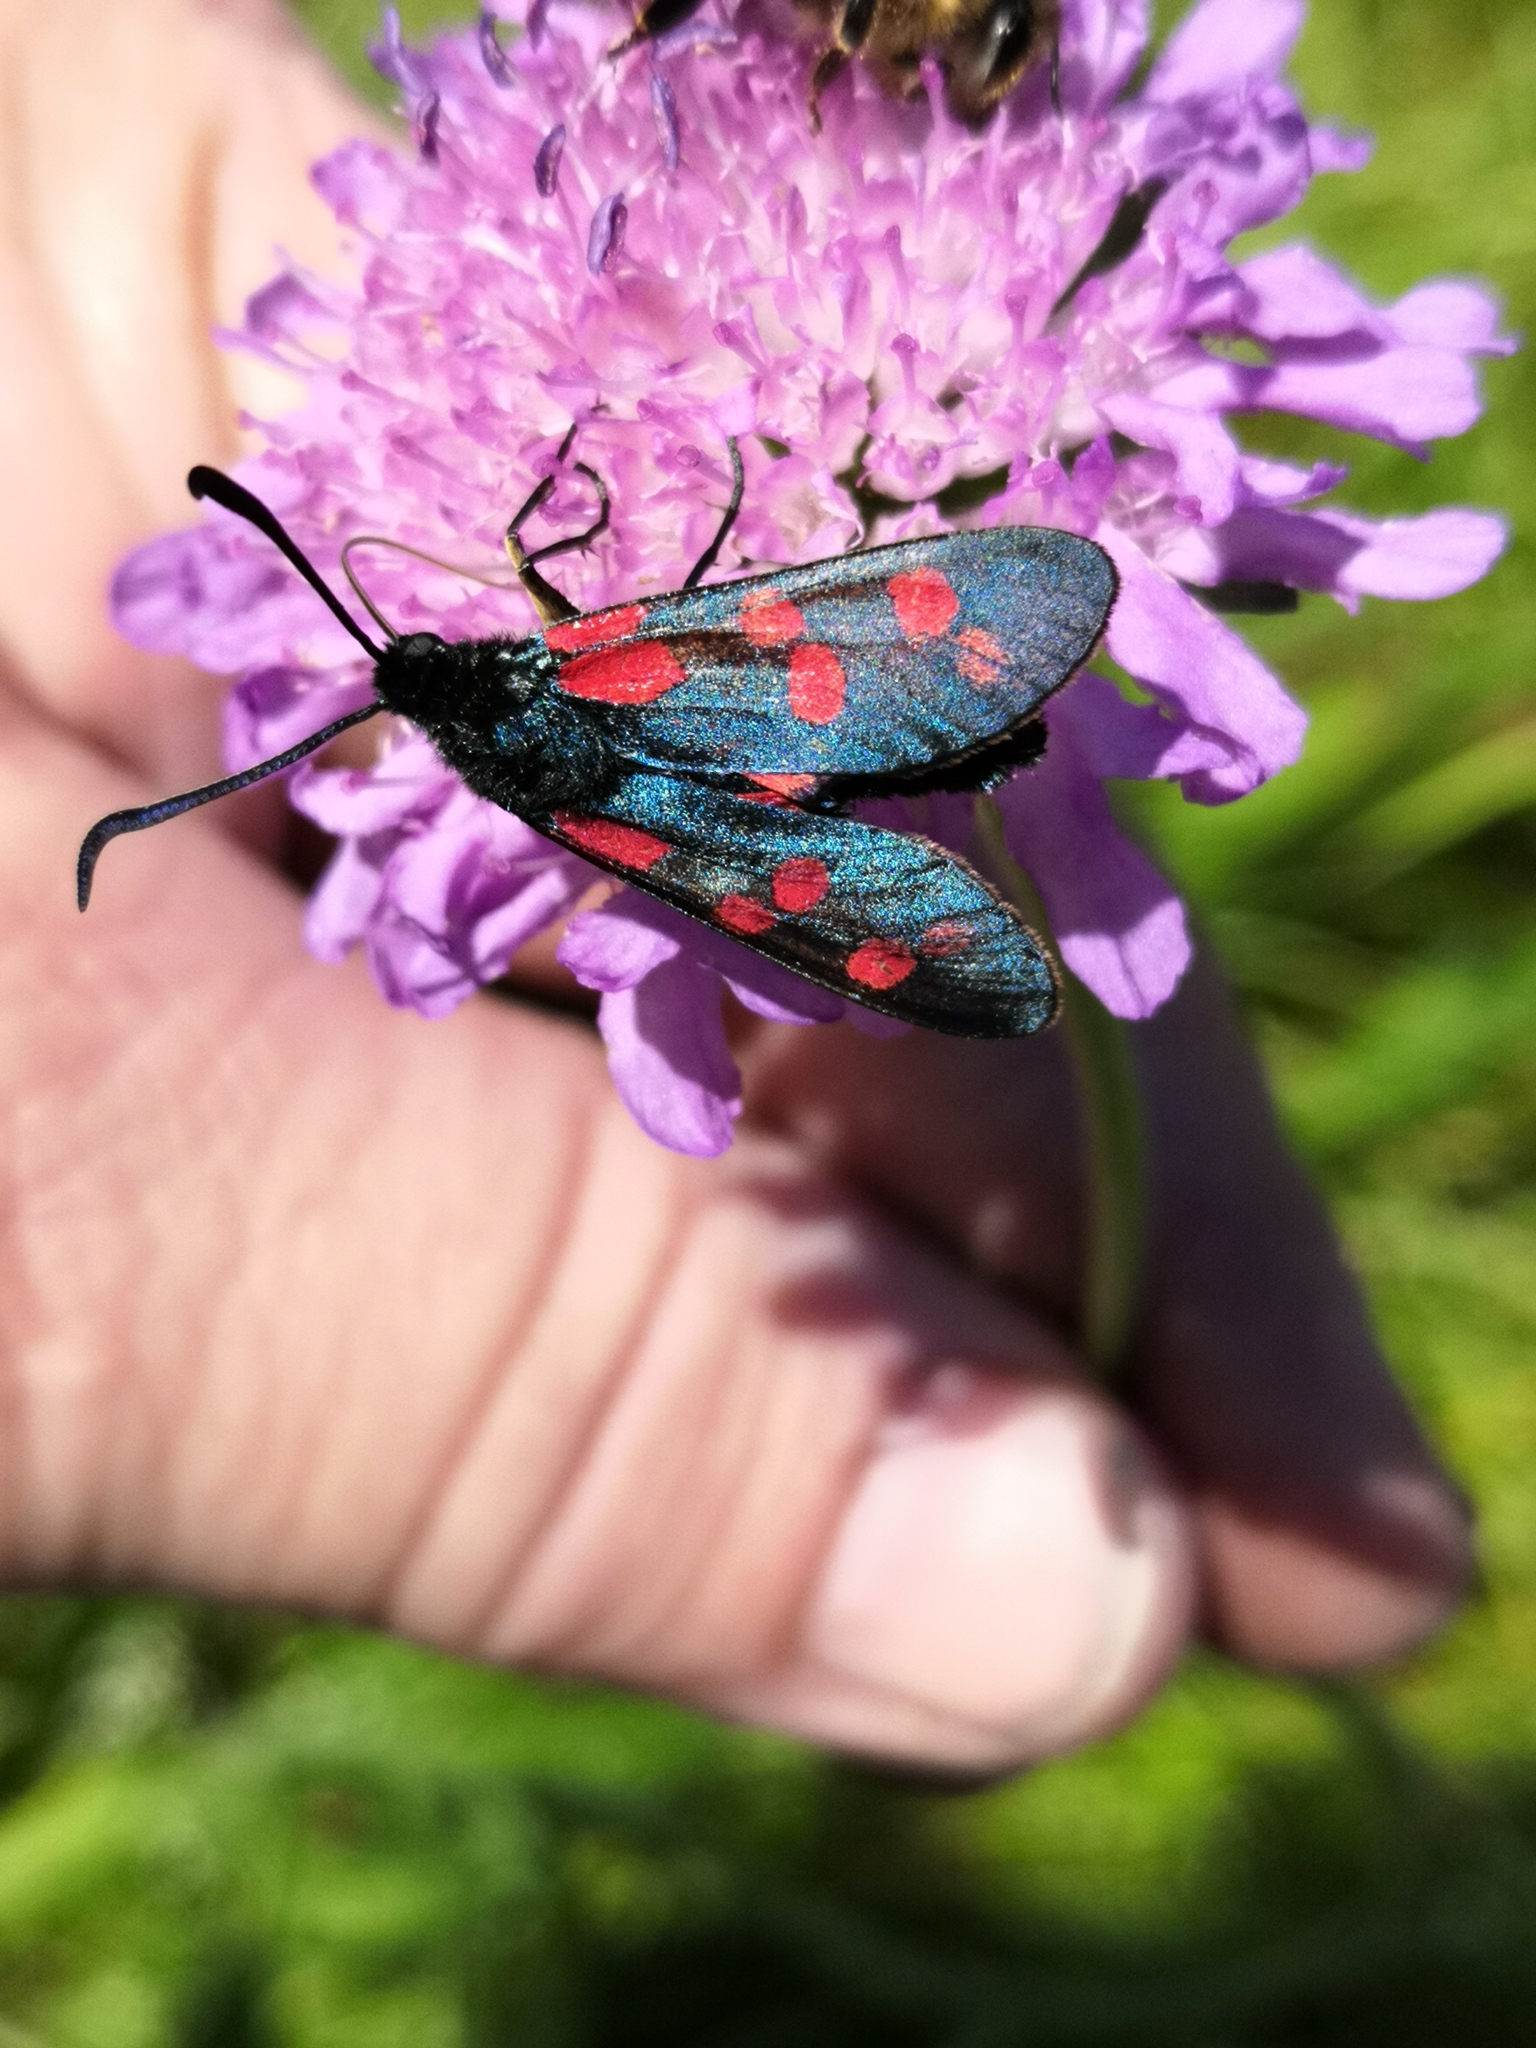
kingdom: Animalia
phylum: Arthropoda
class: Insecta
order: Lepidoptera
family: Zygaenidae
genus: Zygaena
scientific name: Zygaena filipendulae
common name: Six-spot burnet
